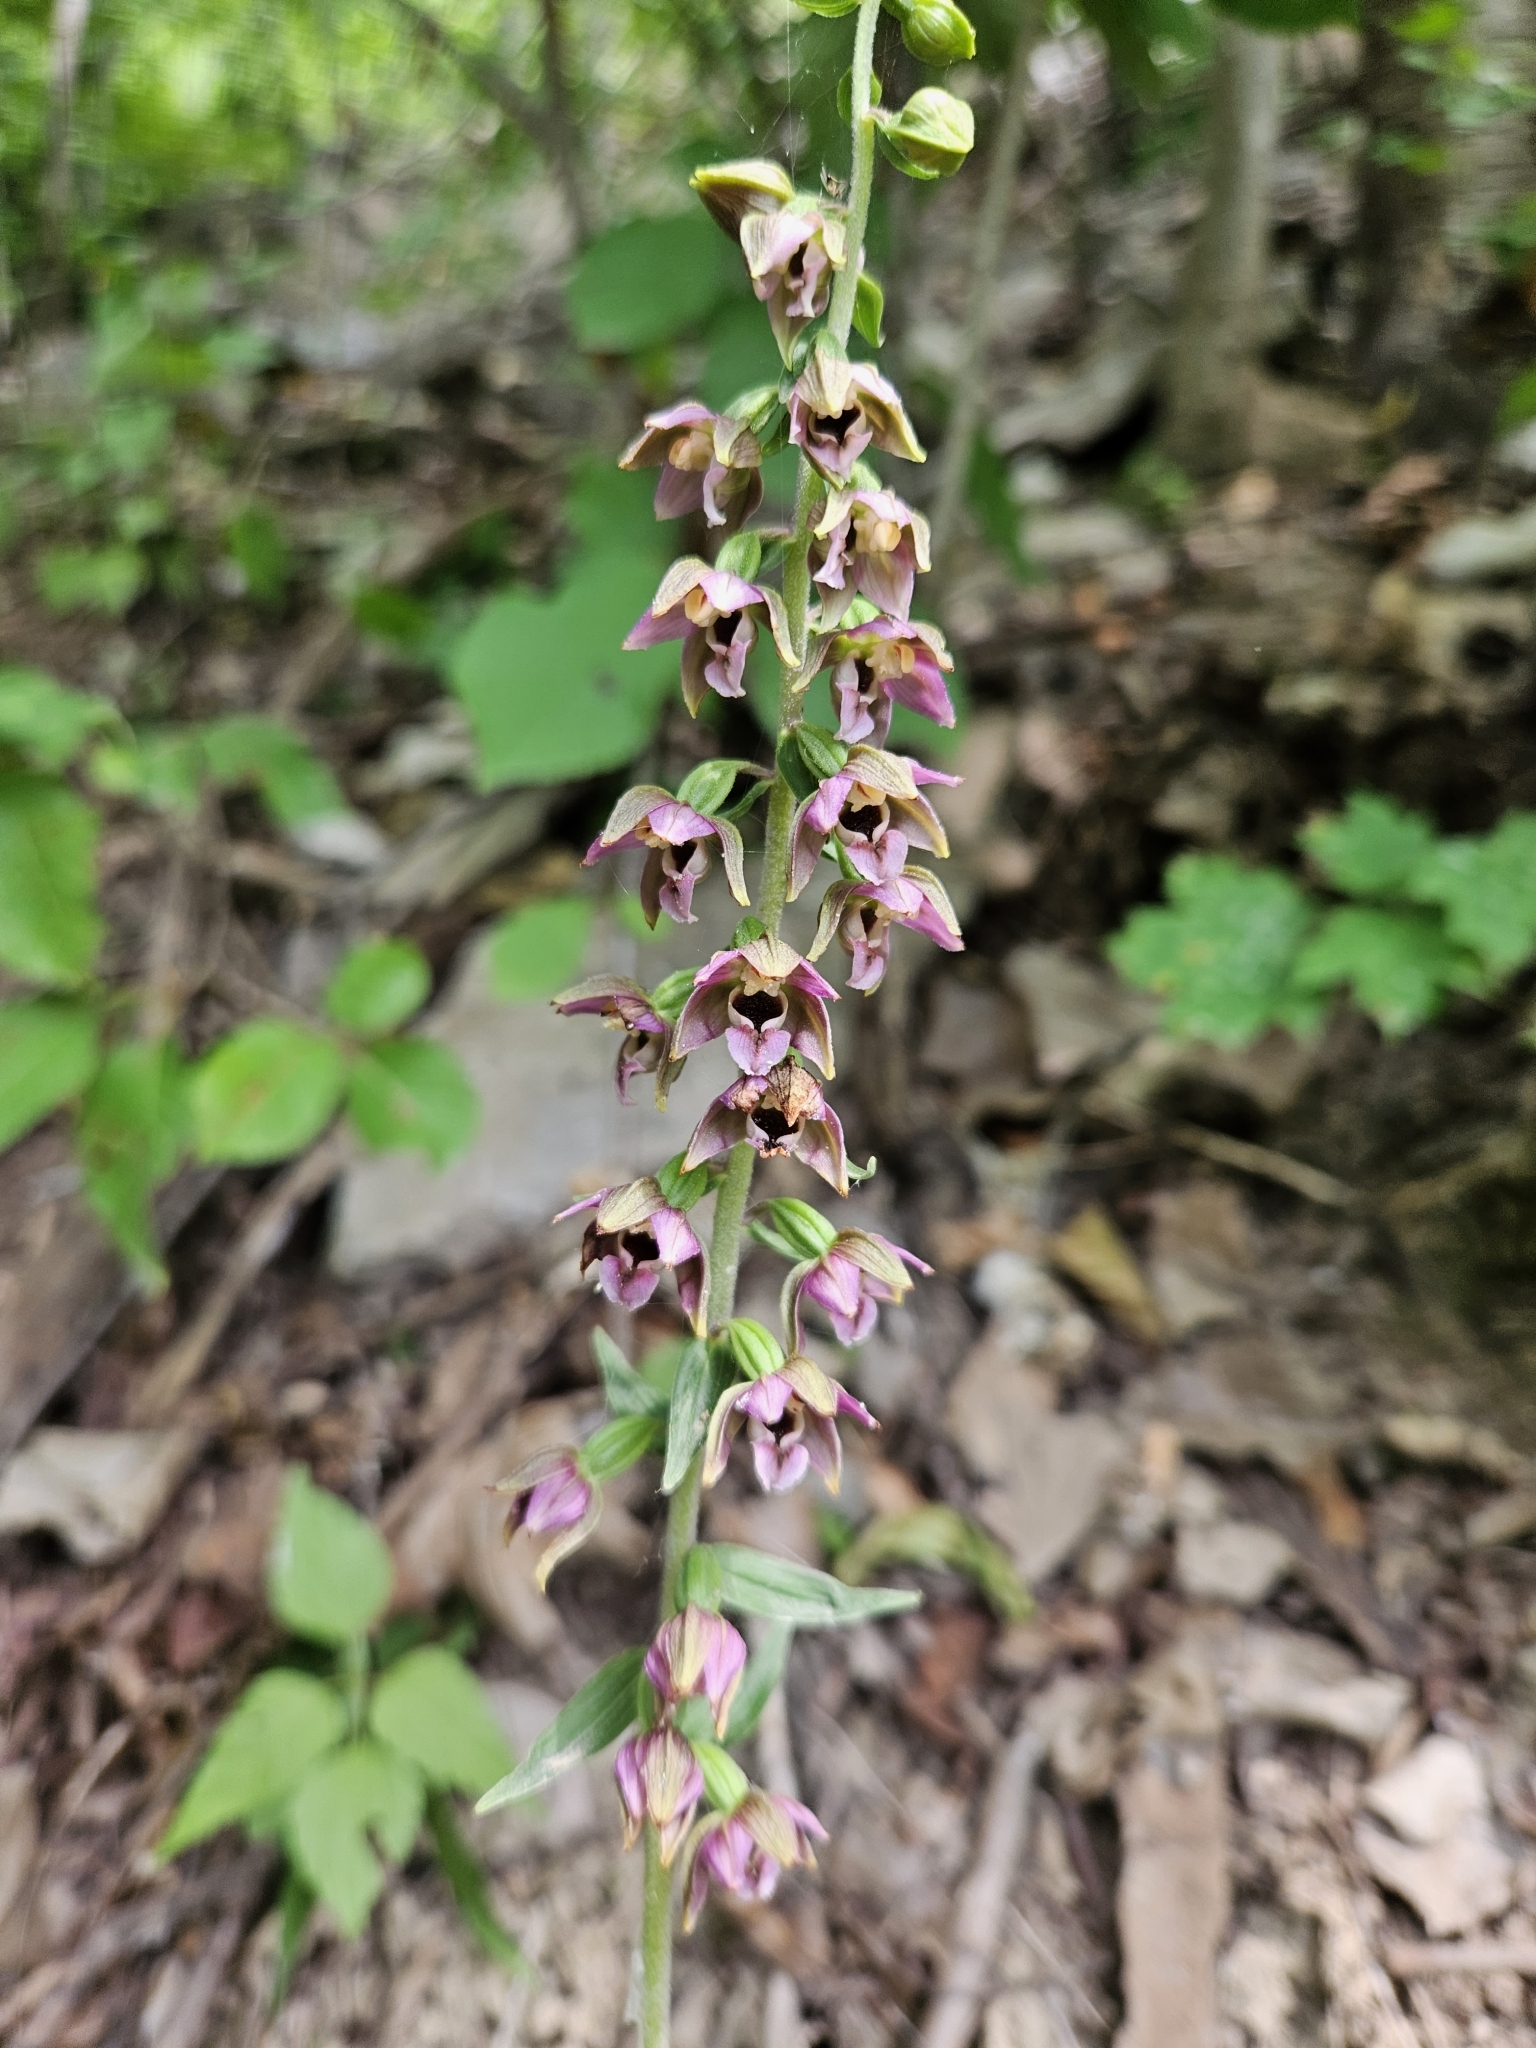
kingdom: Plantae
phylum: Tracheophyta
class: Liliopsida
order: Asparagales
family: Orchidaceae
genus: Epipactis
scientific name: Epipactis helleborine
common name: Broad-leaved helleborine
